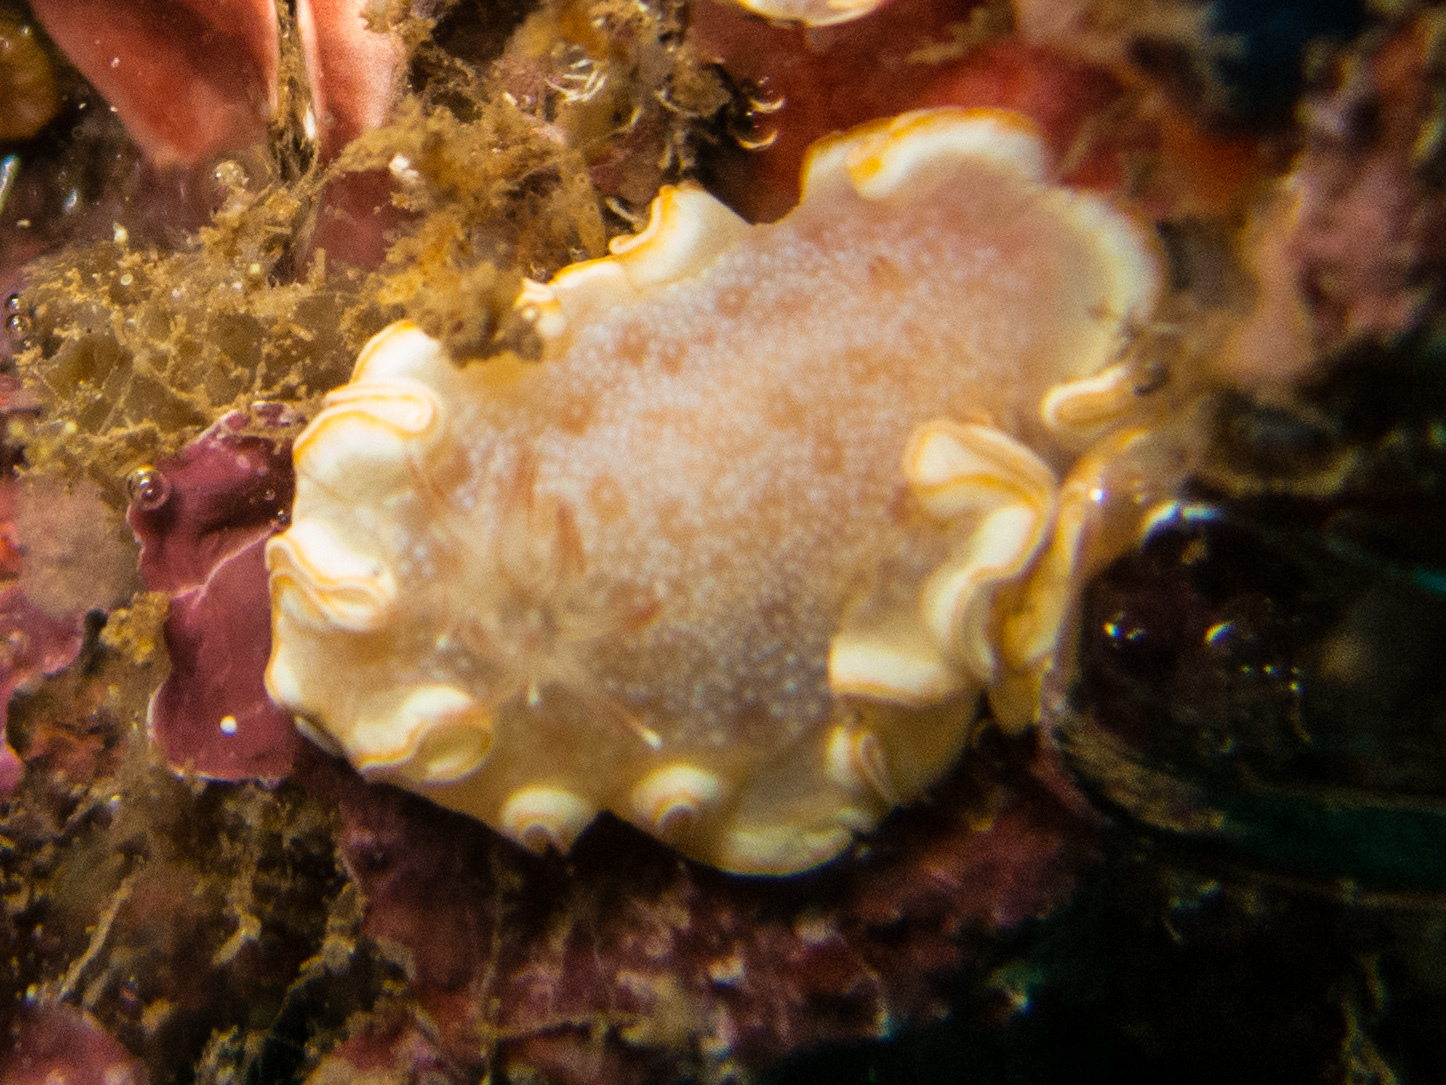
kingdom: Animalia
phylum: Mollusca
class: Gastropoda
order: Nudibranchia
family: Chromodorididae
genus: Ardeadoris
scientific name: Ardeadoris poliahu
